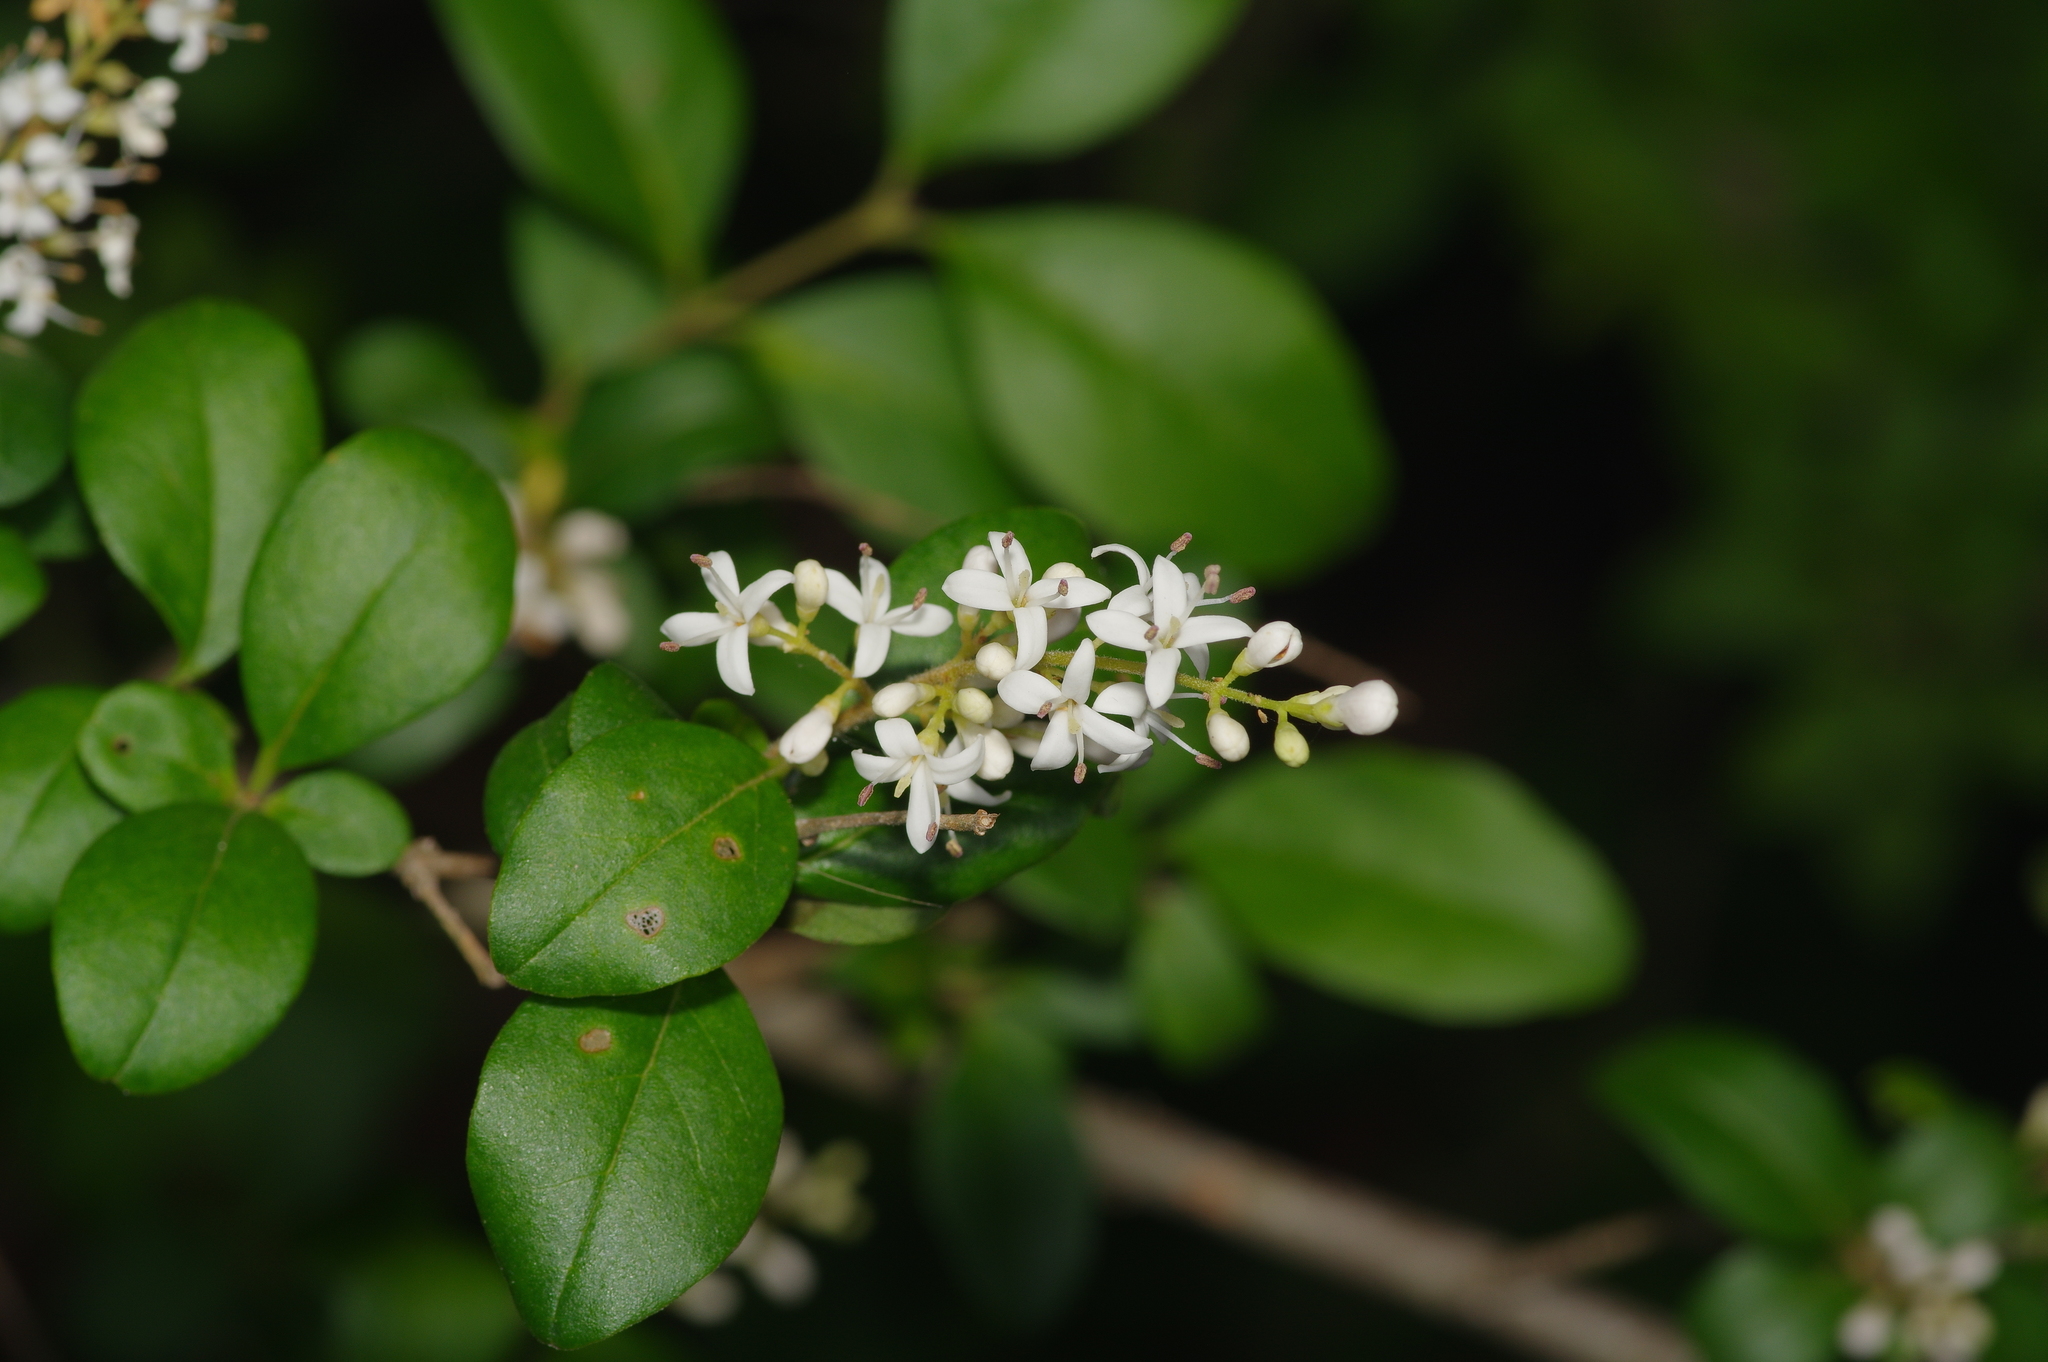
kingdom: Plantae
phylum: Tracheophyta
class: Magnoliopsida
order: Lamiales
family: Oleaceae
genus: Ligustrum
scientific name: Ligustrum sinense
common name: Chinese privet
